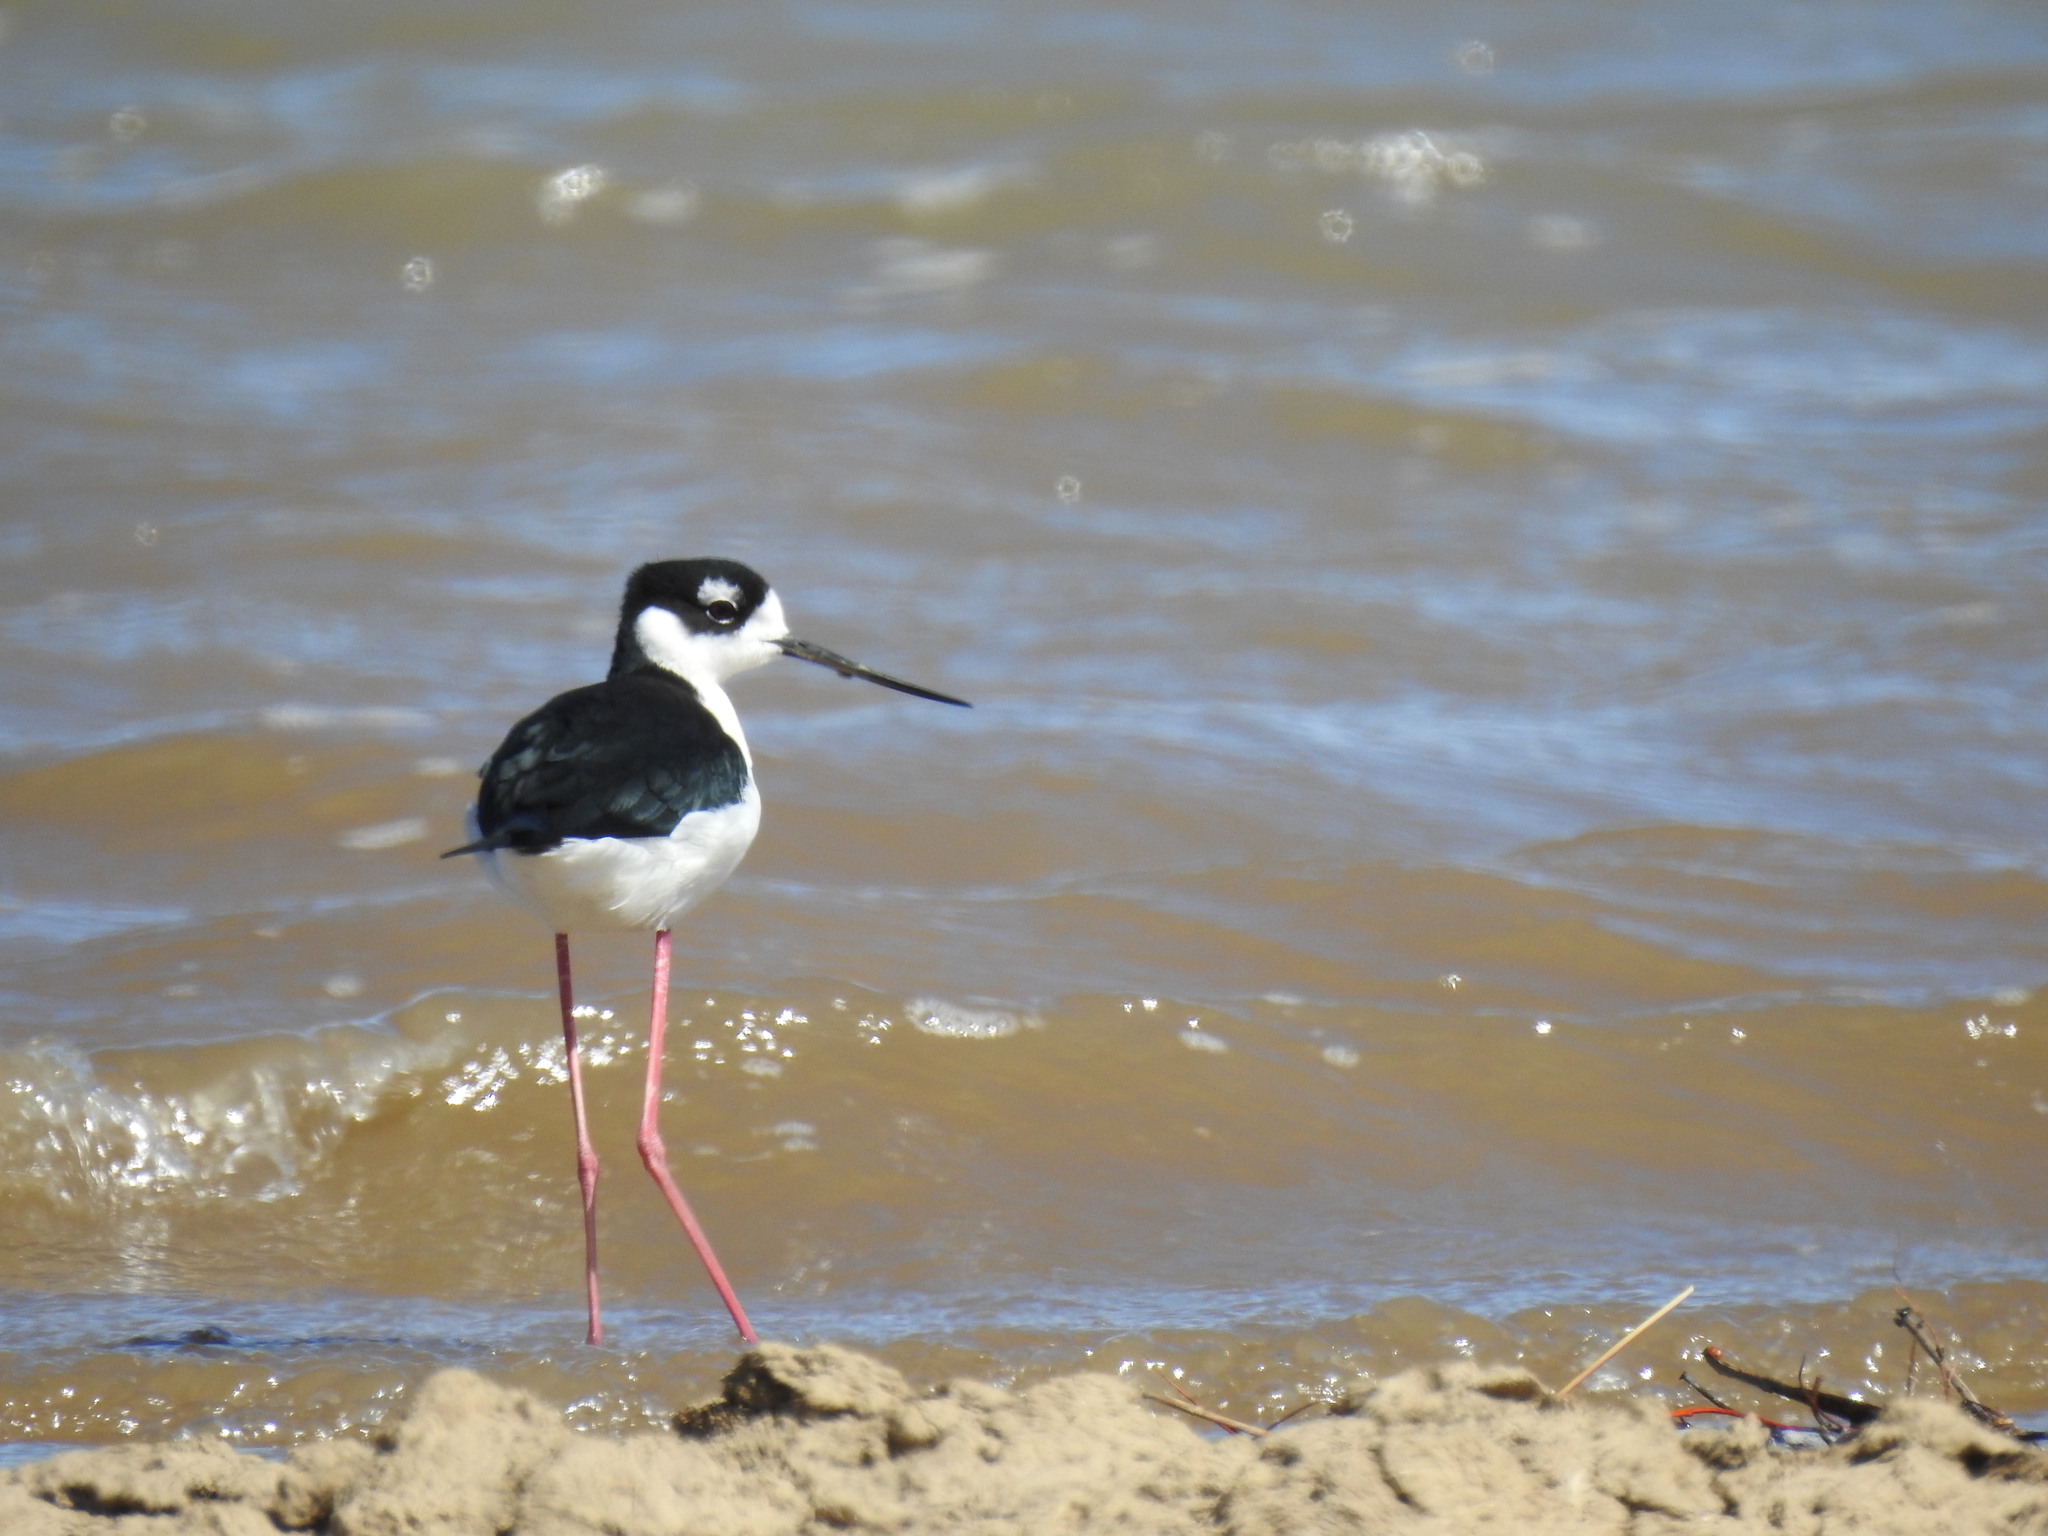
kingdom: Animalia
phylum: Chordata
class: Aves
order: Charadriiformes
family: Recurvirostridae
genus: Himantopus
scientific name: Himantopus mexicanus
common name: Black-necked stilt
